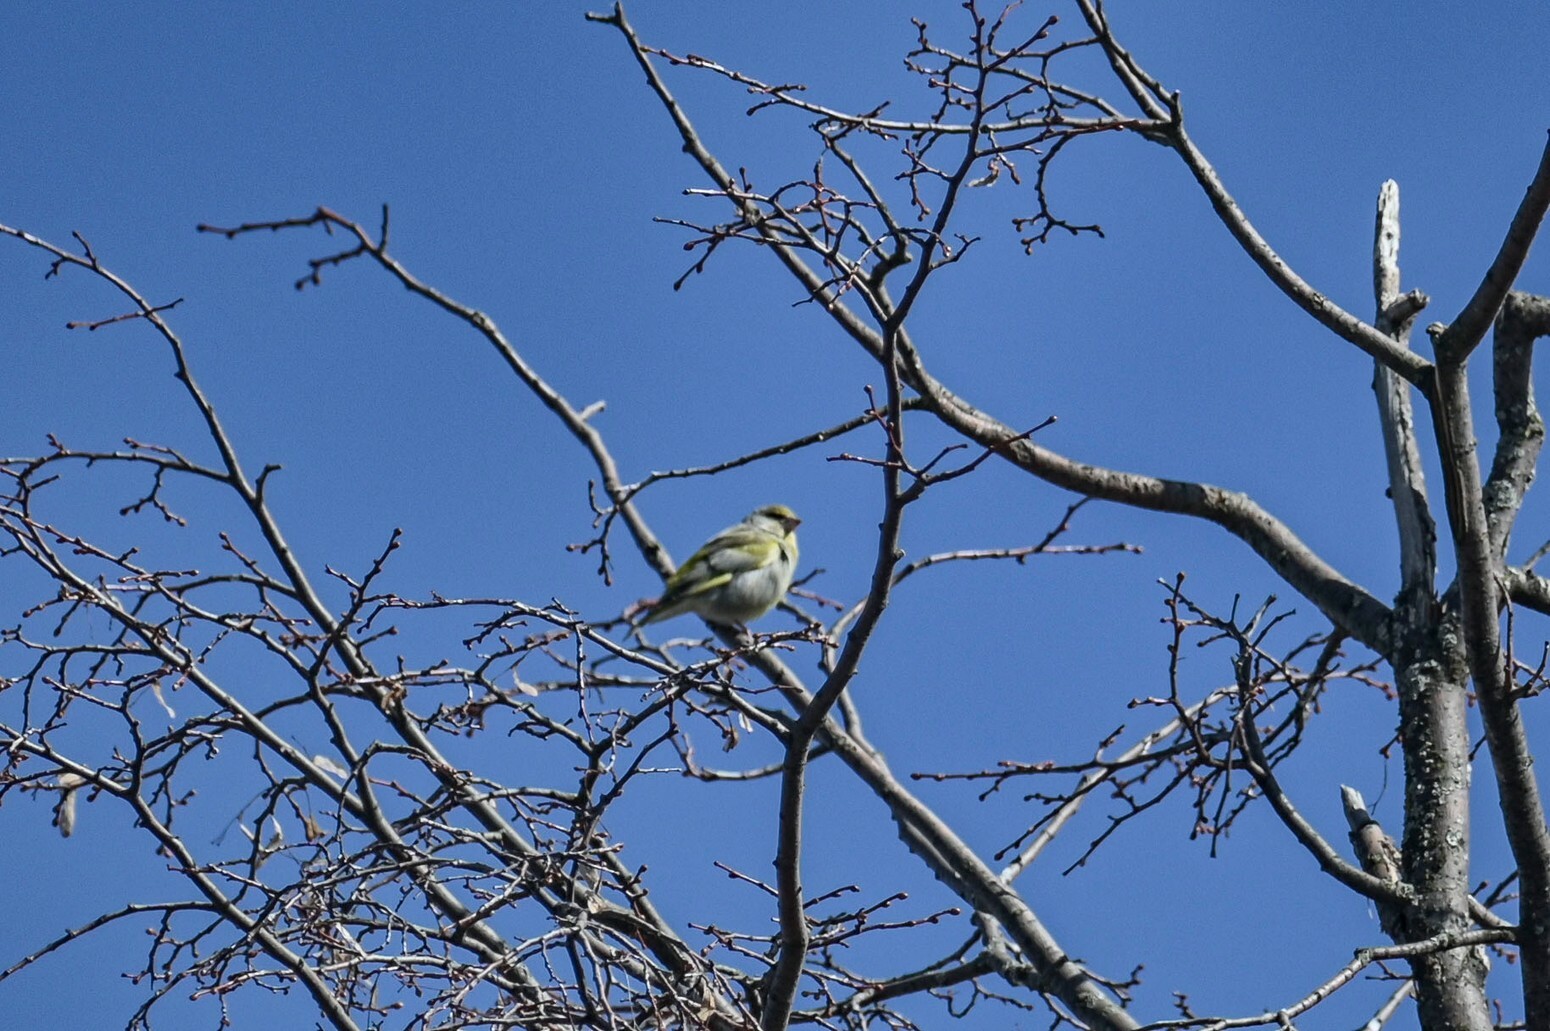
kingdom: Plantae
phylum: Tracheophyta
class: Liliopsida
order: Poales
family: Poaceae
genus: Chloris
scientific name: Chloris chloris
